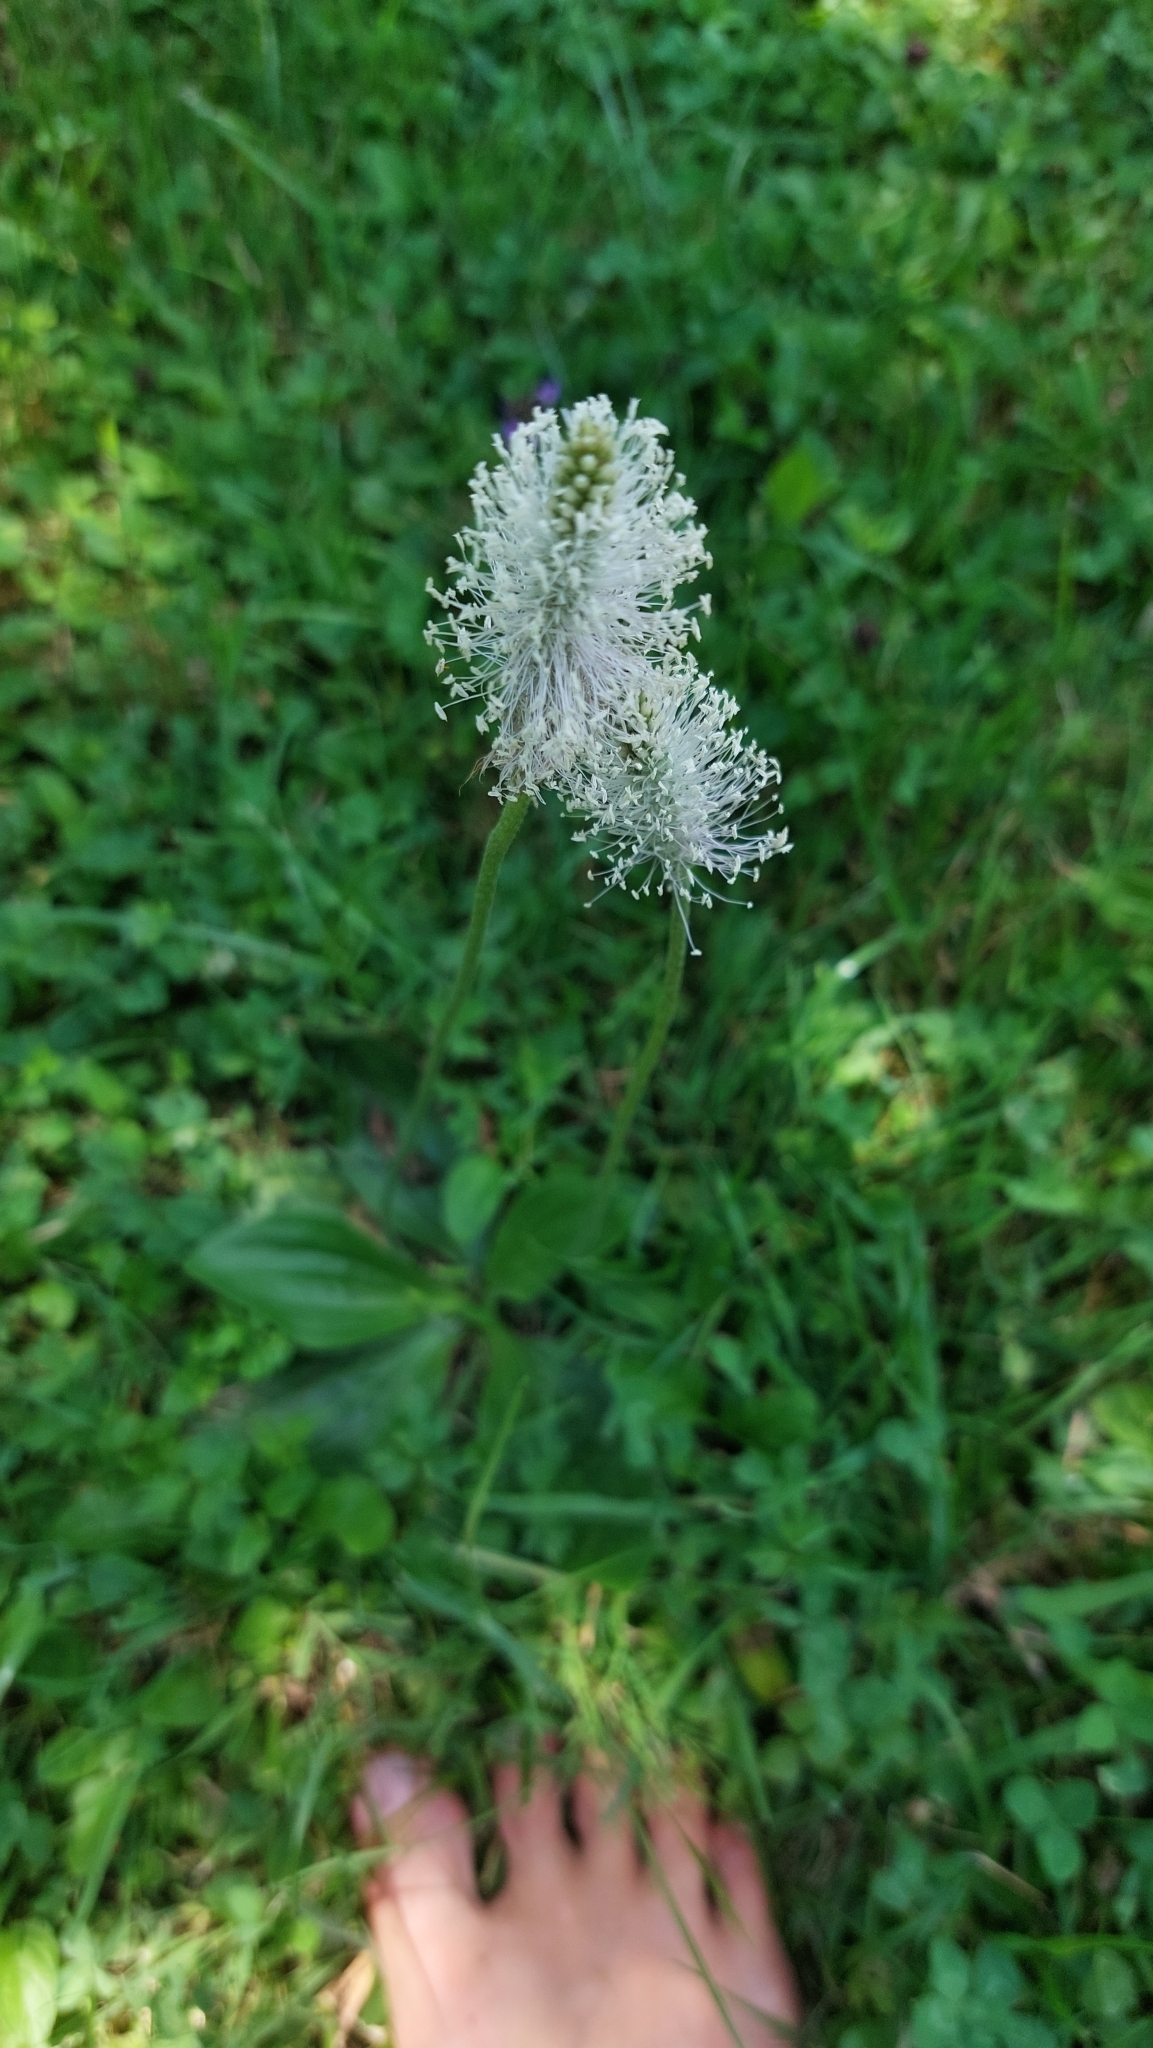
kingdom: Plantae
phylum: Tracheophyta
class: Magnoliopsida
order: Lamiales
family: Plantaginaceae
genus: Plantago
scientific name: Plantago media
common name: Hoary plantain
